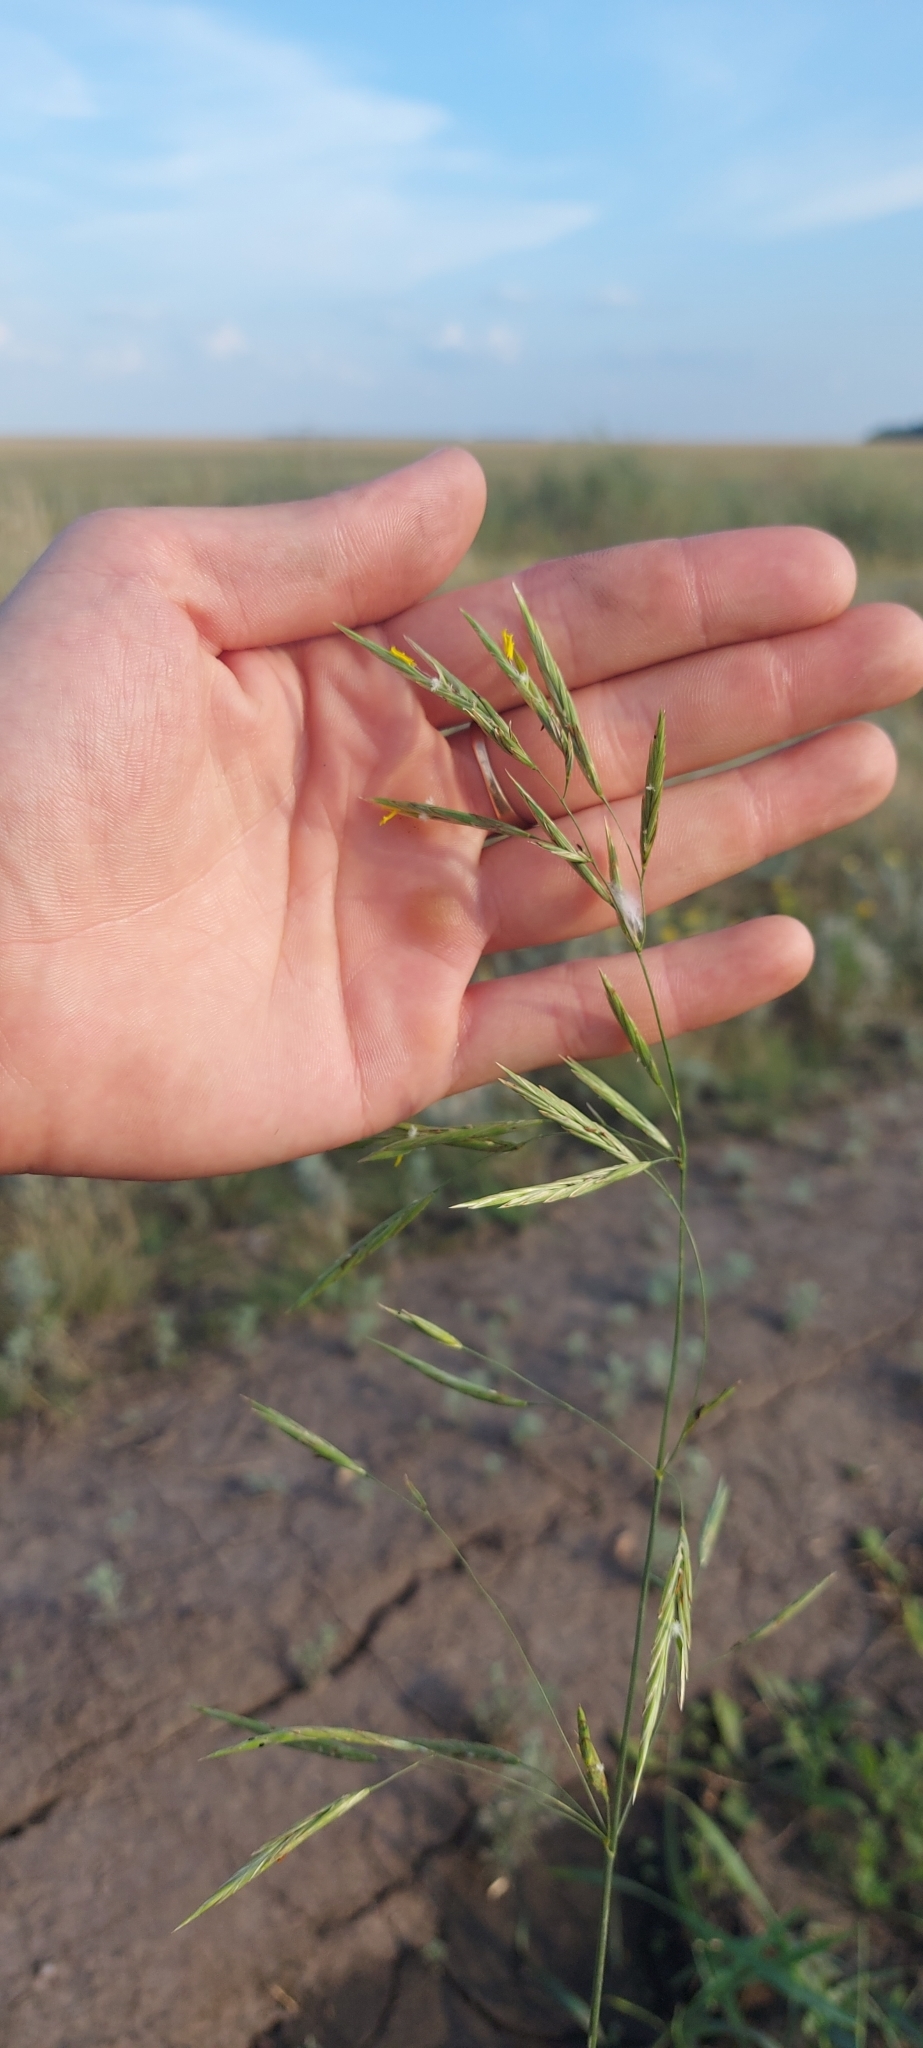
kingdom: Plantae
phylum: Tracheophyta
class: Liliopsida
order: Poales
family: Poaceae
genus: Bromus
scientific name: Bromus inermis
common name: Smooth brome
